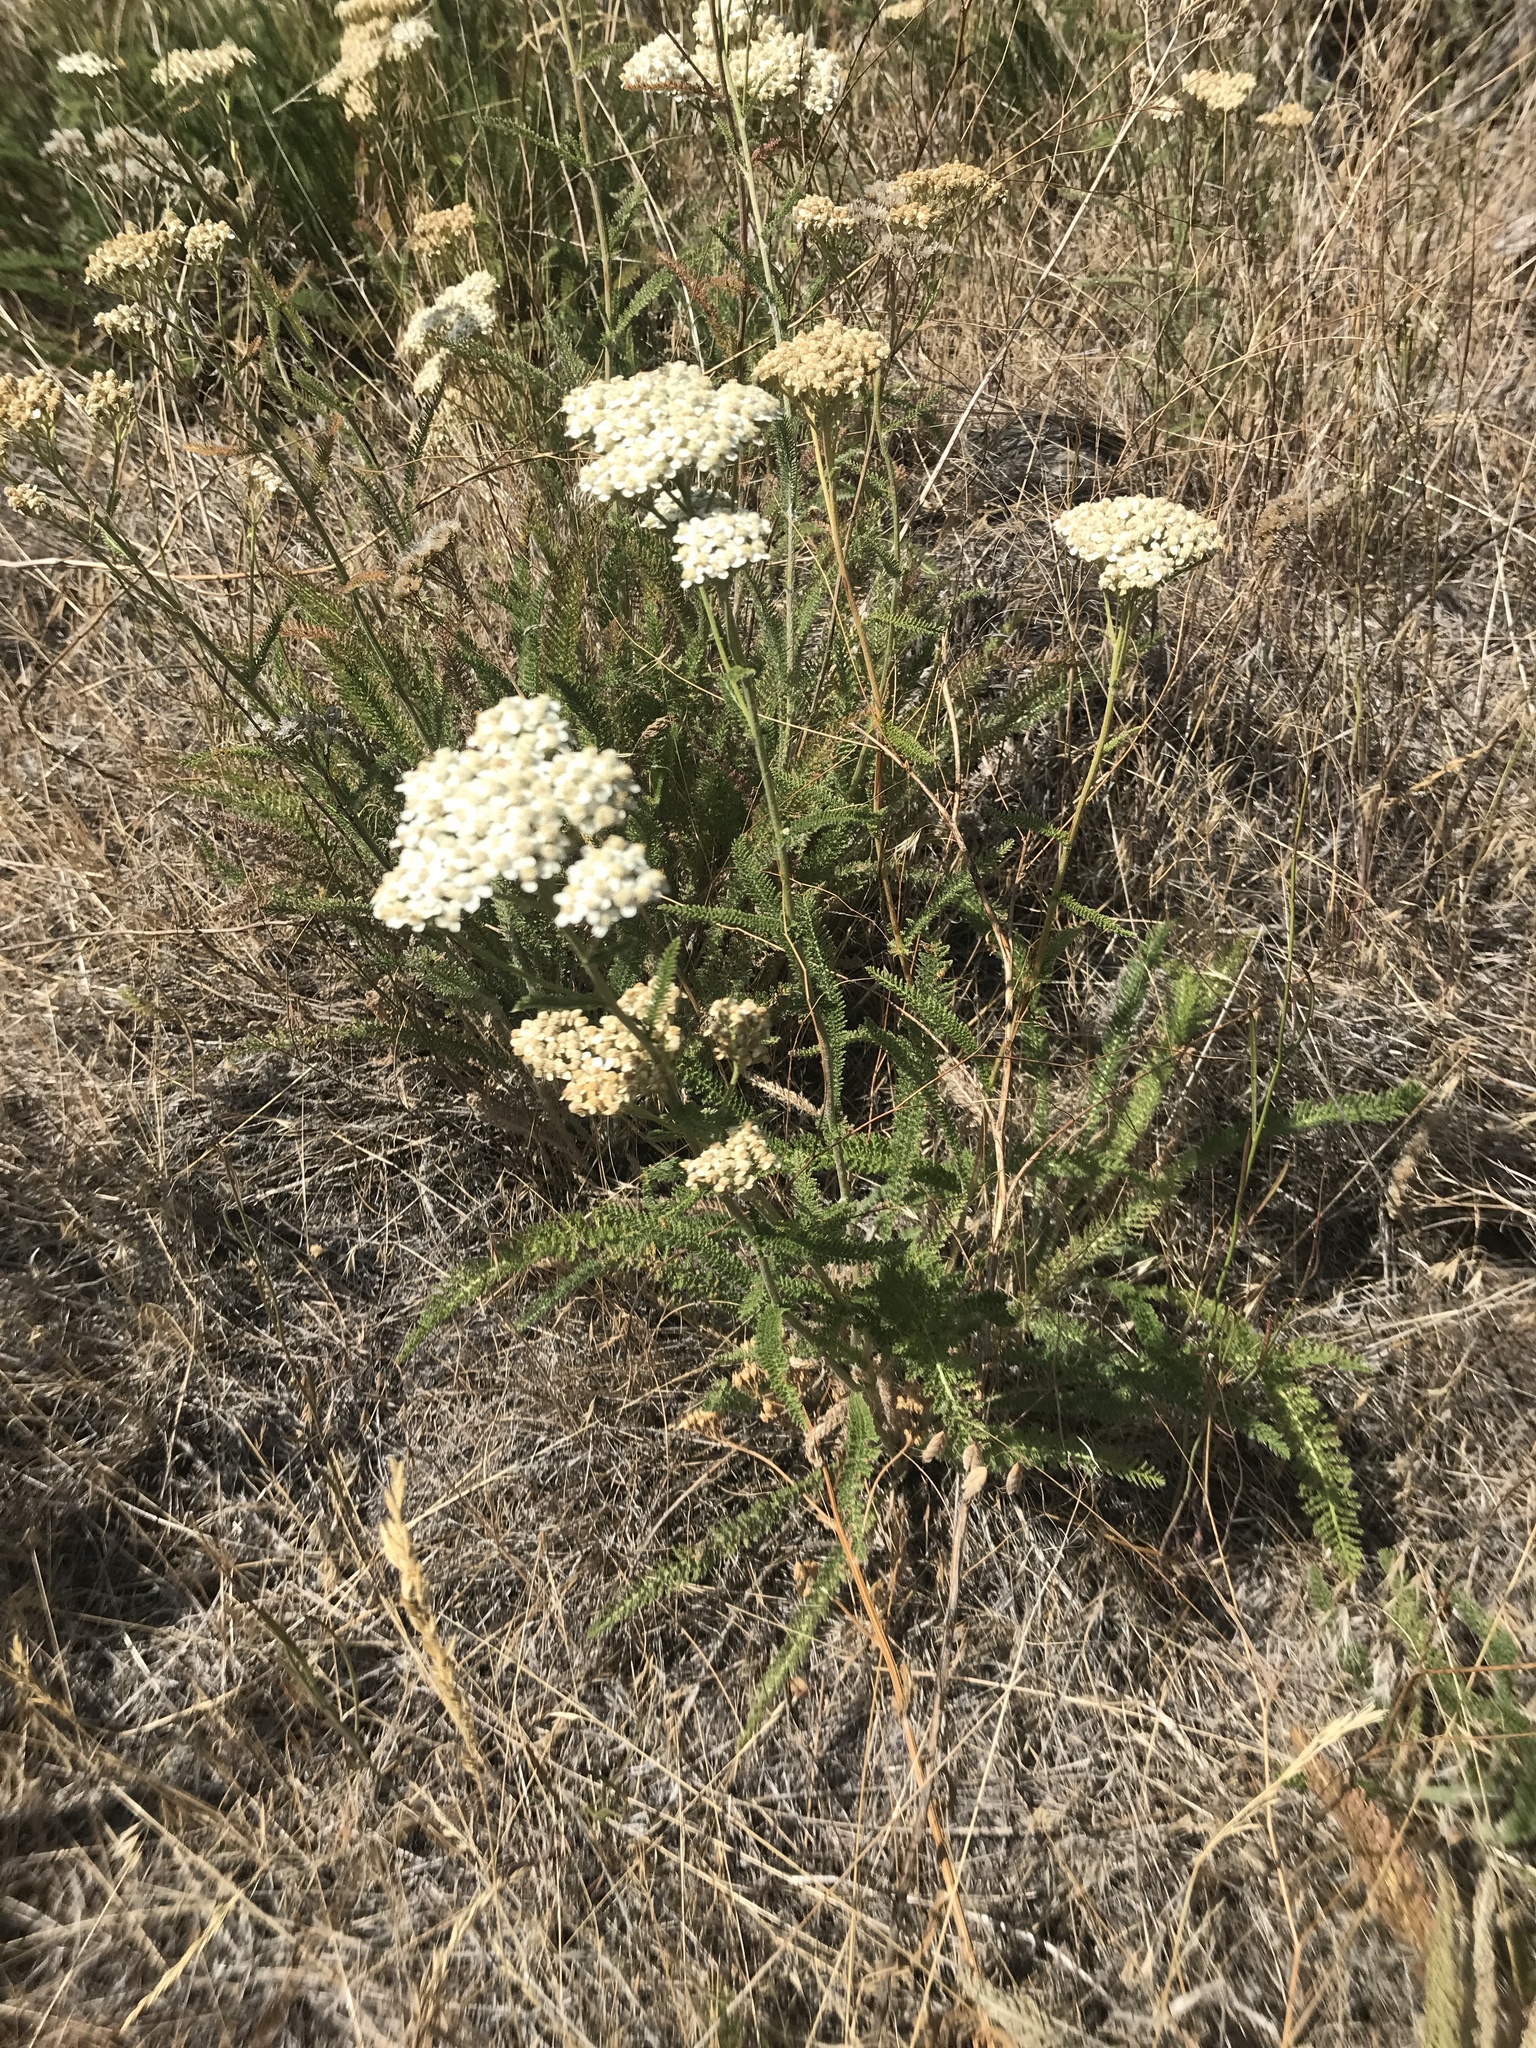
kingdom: Plantae
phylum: Tracheophyta
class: Magnoliopsida
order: Asterales
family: Asteraceae
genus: Achillea
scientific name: Achillea millefolium
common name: Yarrow
